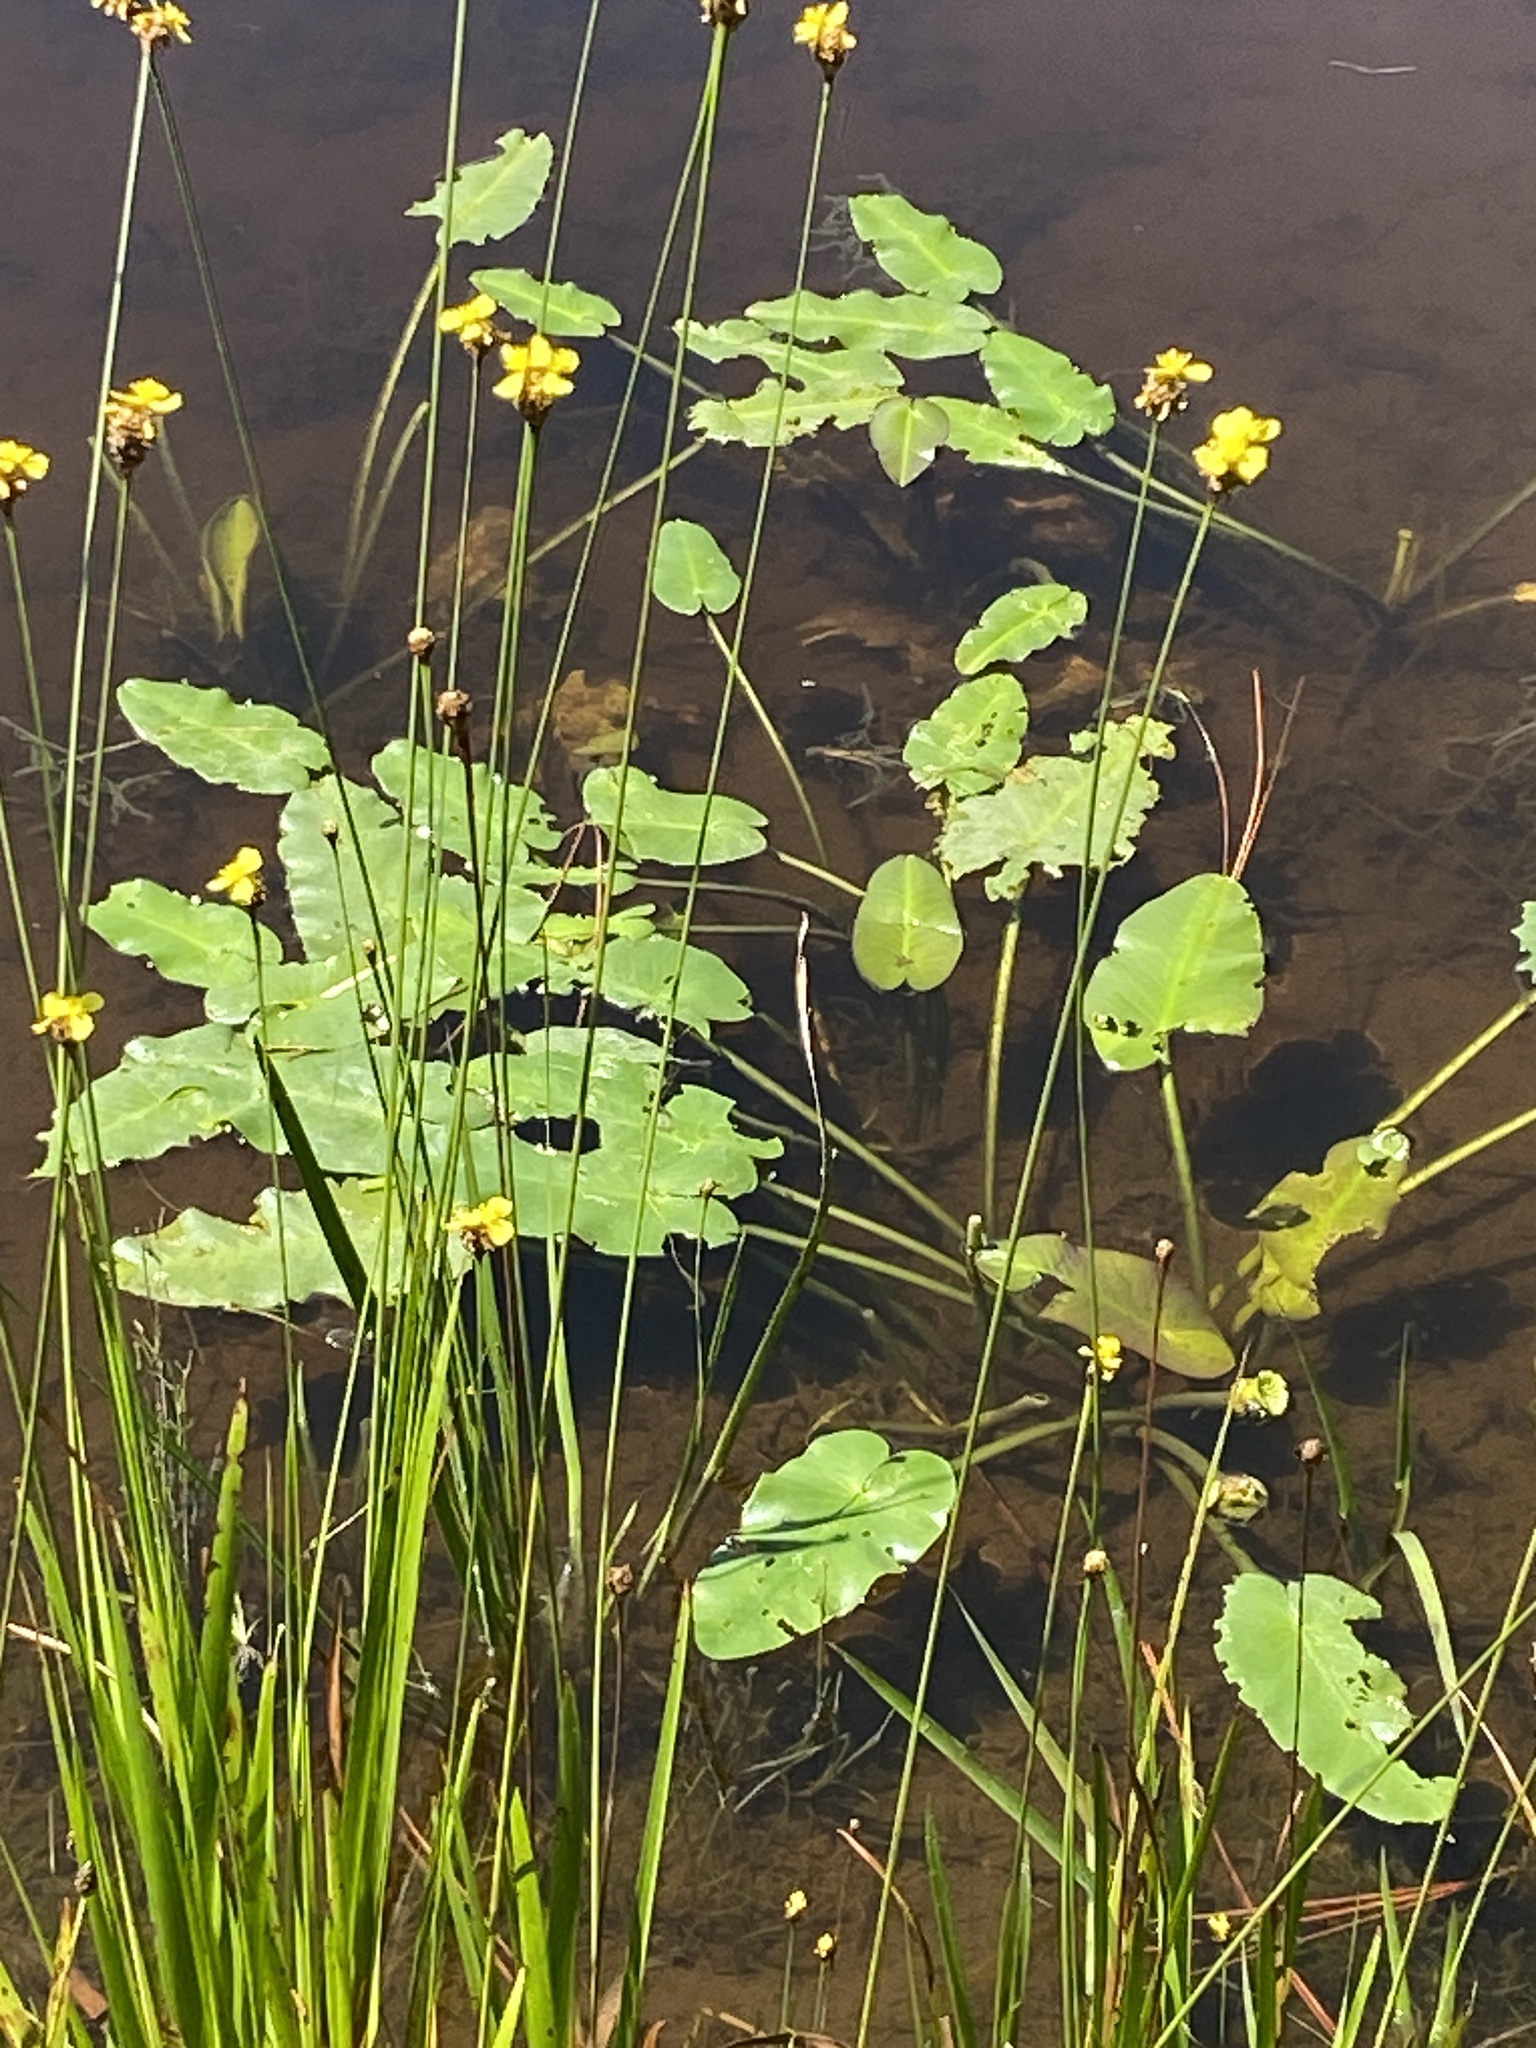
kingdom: Plantae
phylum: Tracheophyta
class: Magnoliopsida
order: Nymphaeales
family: Nymphaeaceae
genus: Nuphar
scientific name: Nuphar sagittifolia
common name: Cape fear spatterdock
